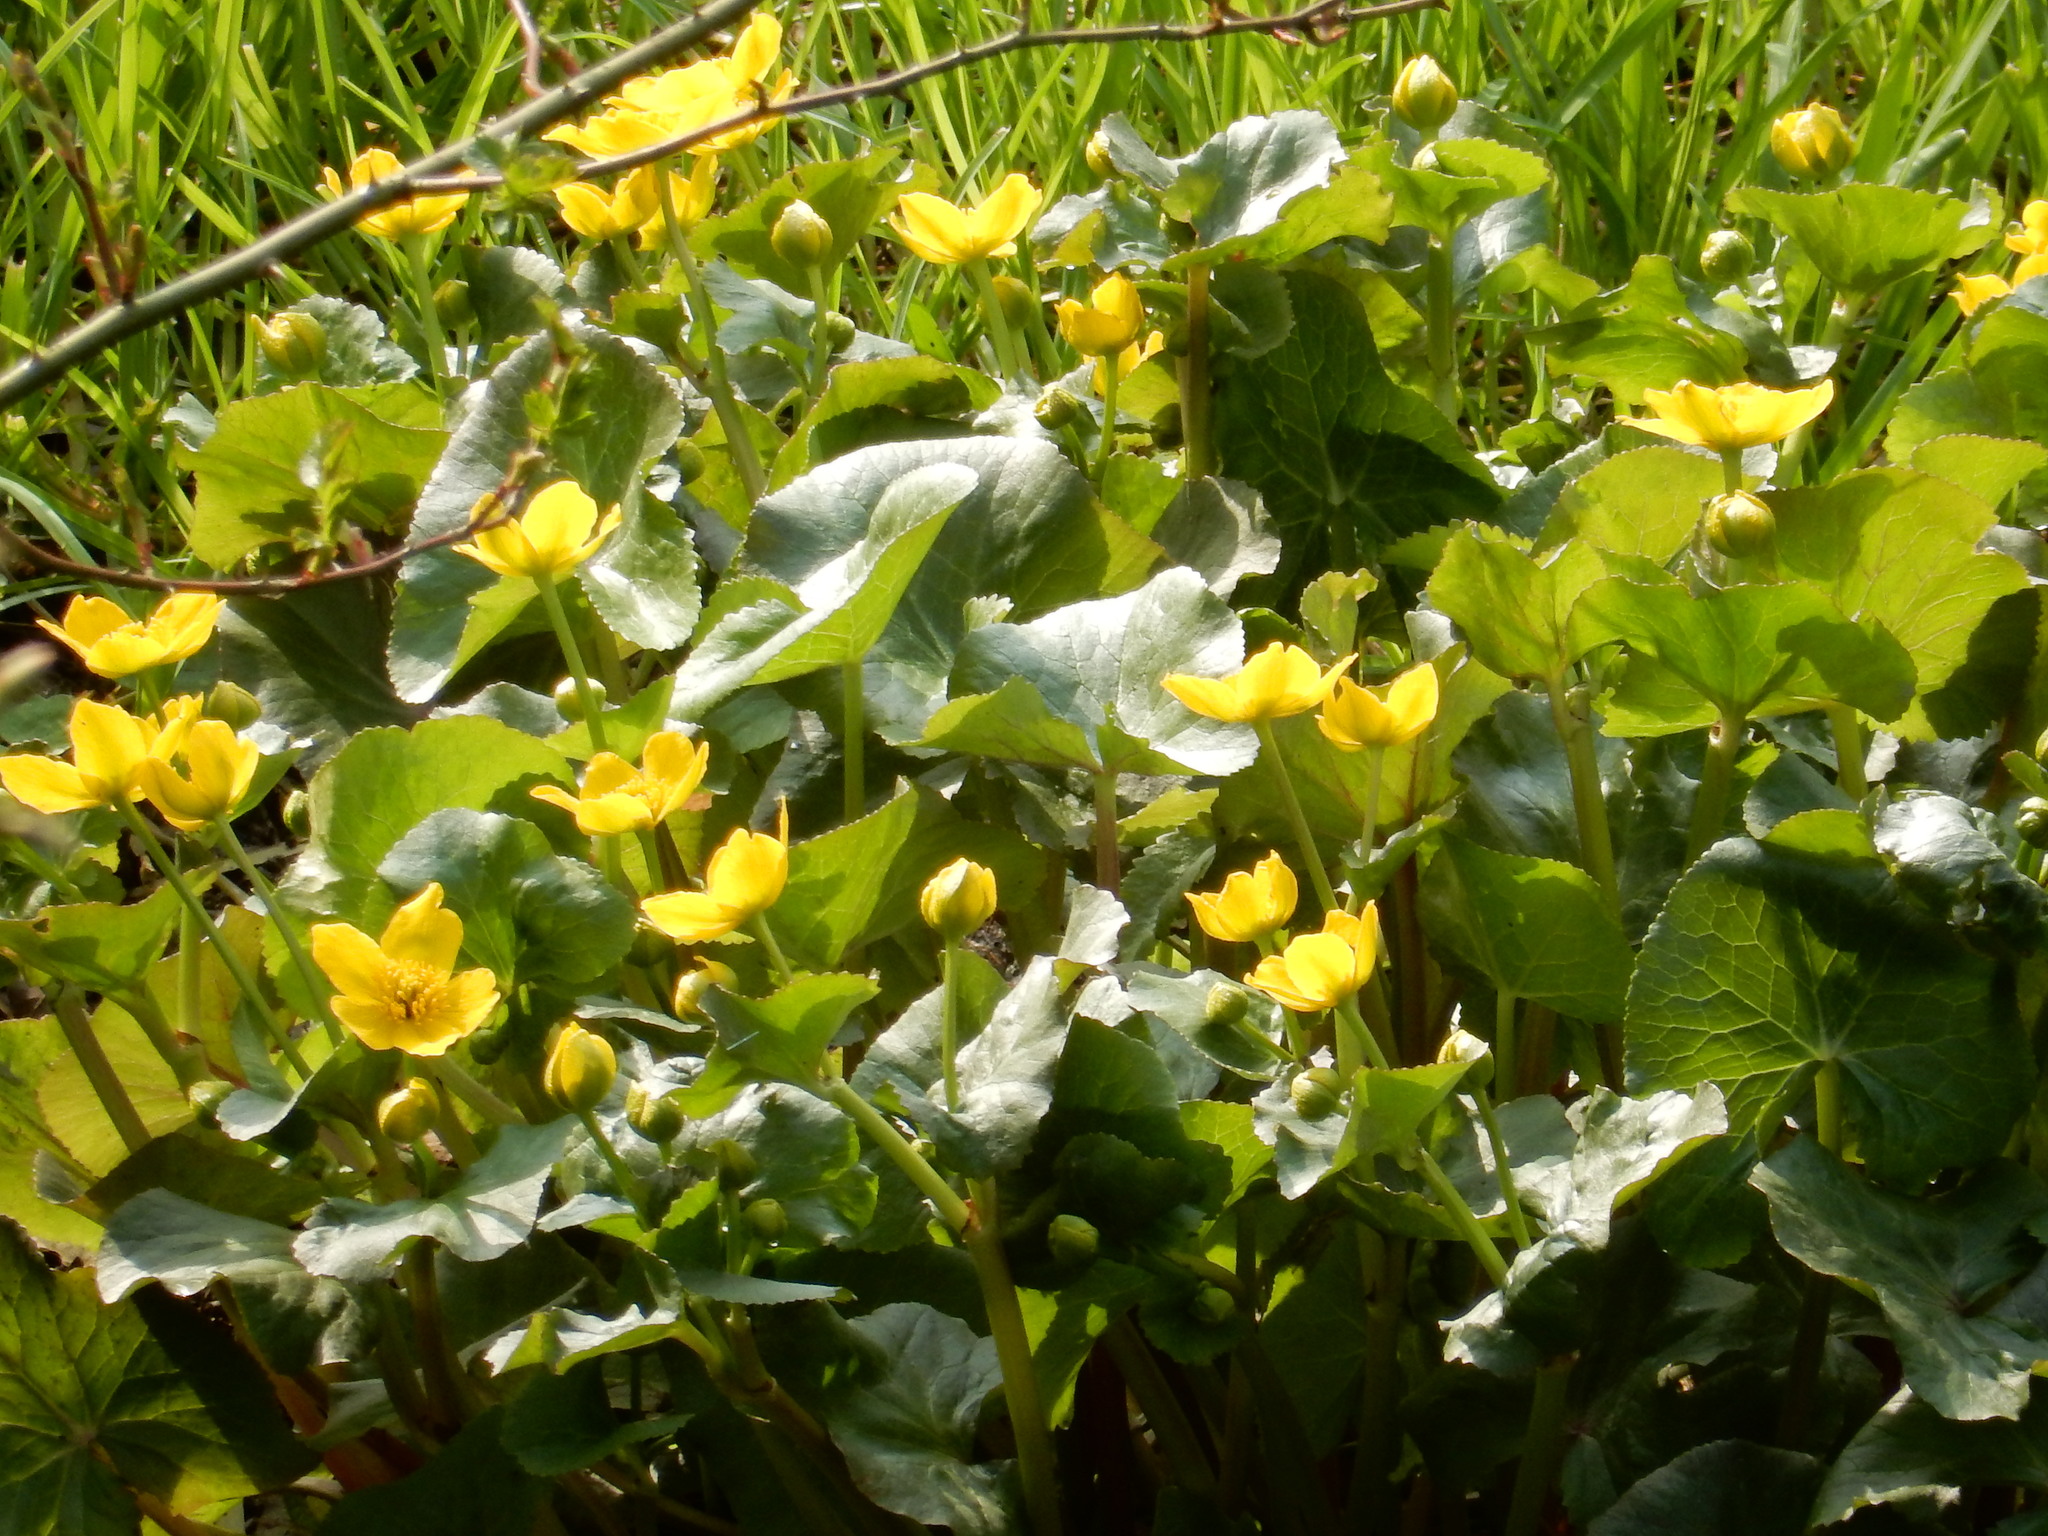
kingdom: Plantae
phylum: Tracheophyta
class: Magnoliopsida
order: Ranunculales
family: Ranunculaceae
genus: Caltha
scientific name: Caltha palustris
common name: Marsh marigold
